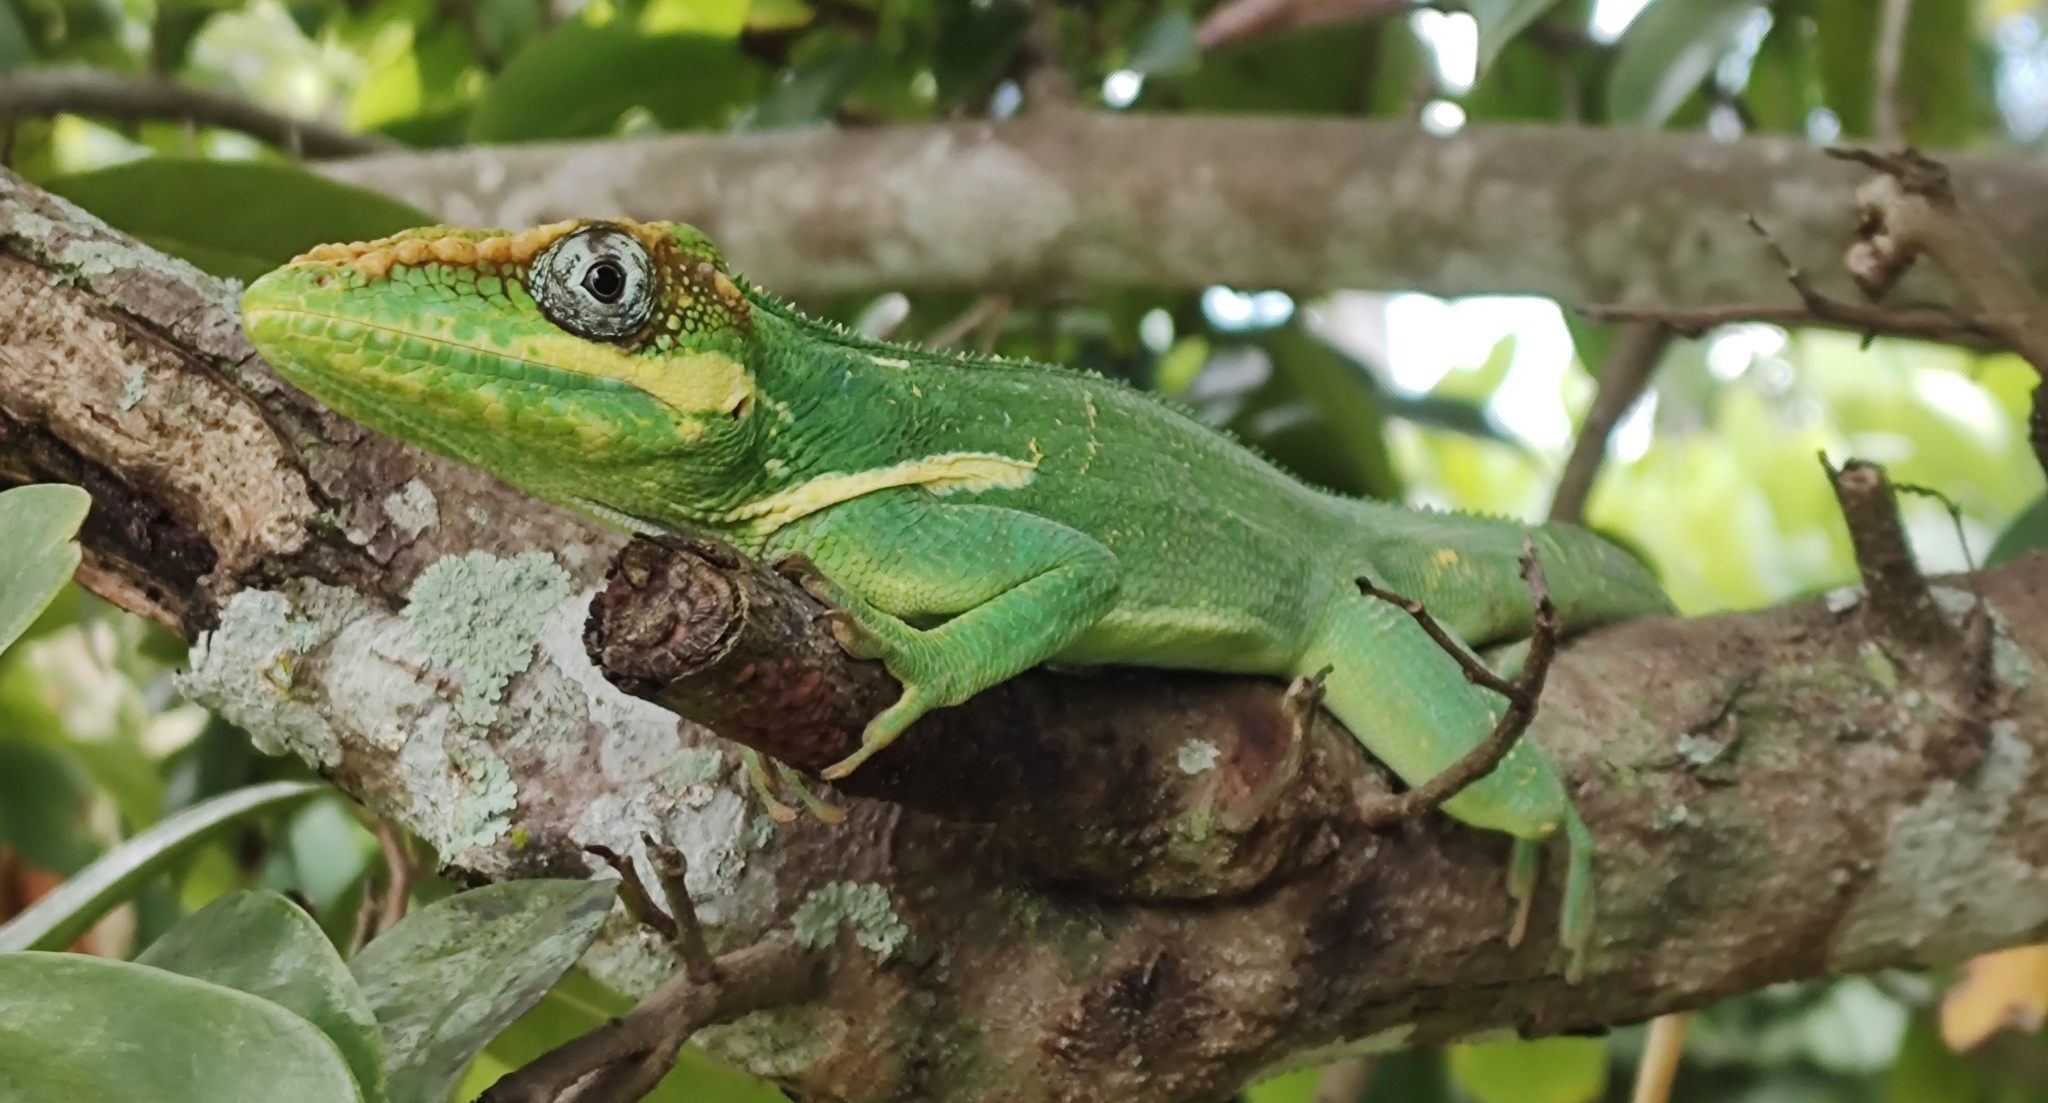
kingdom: Animalia
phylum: Chordata
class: Squamata
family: Dactyloidae
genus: Anolis
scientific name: Anolis equestris
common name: Knight anole
